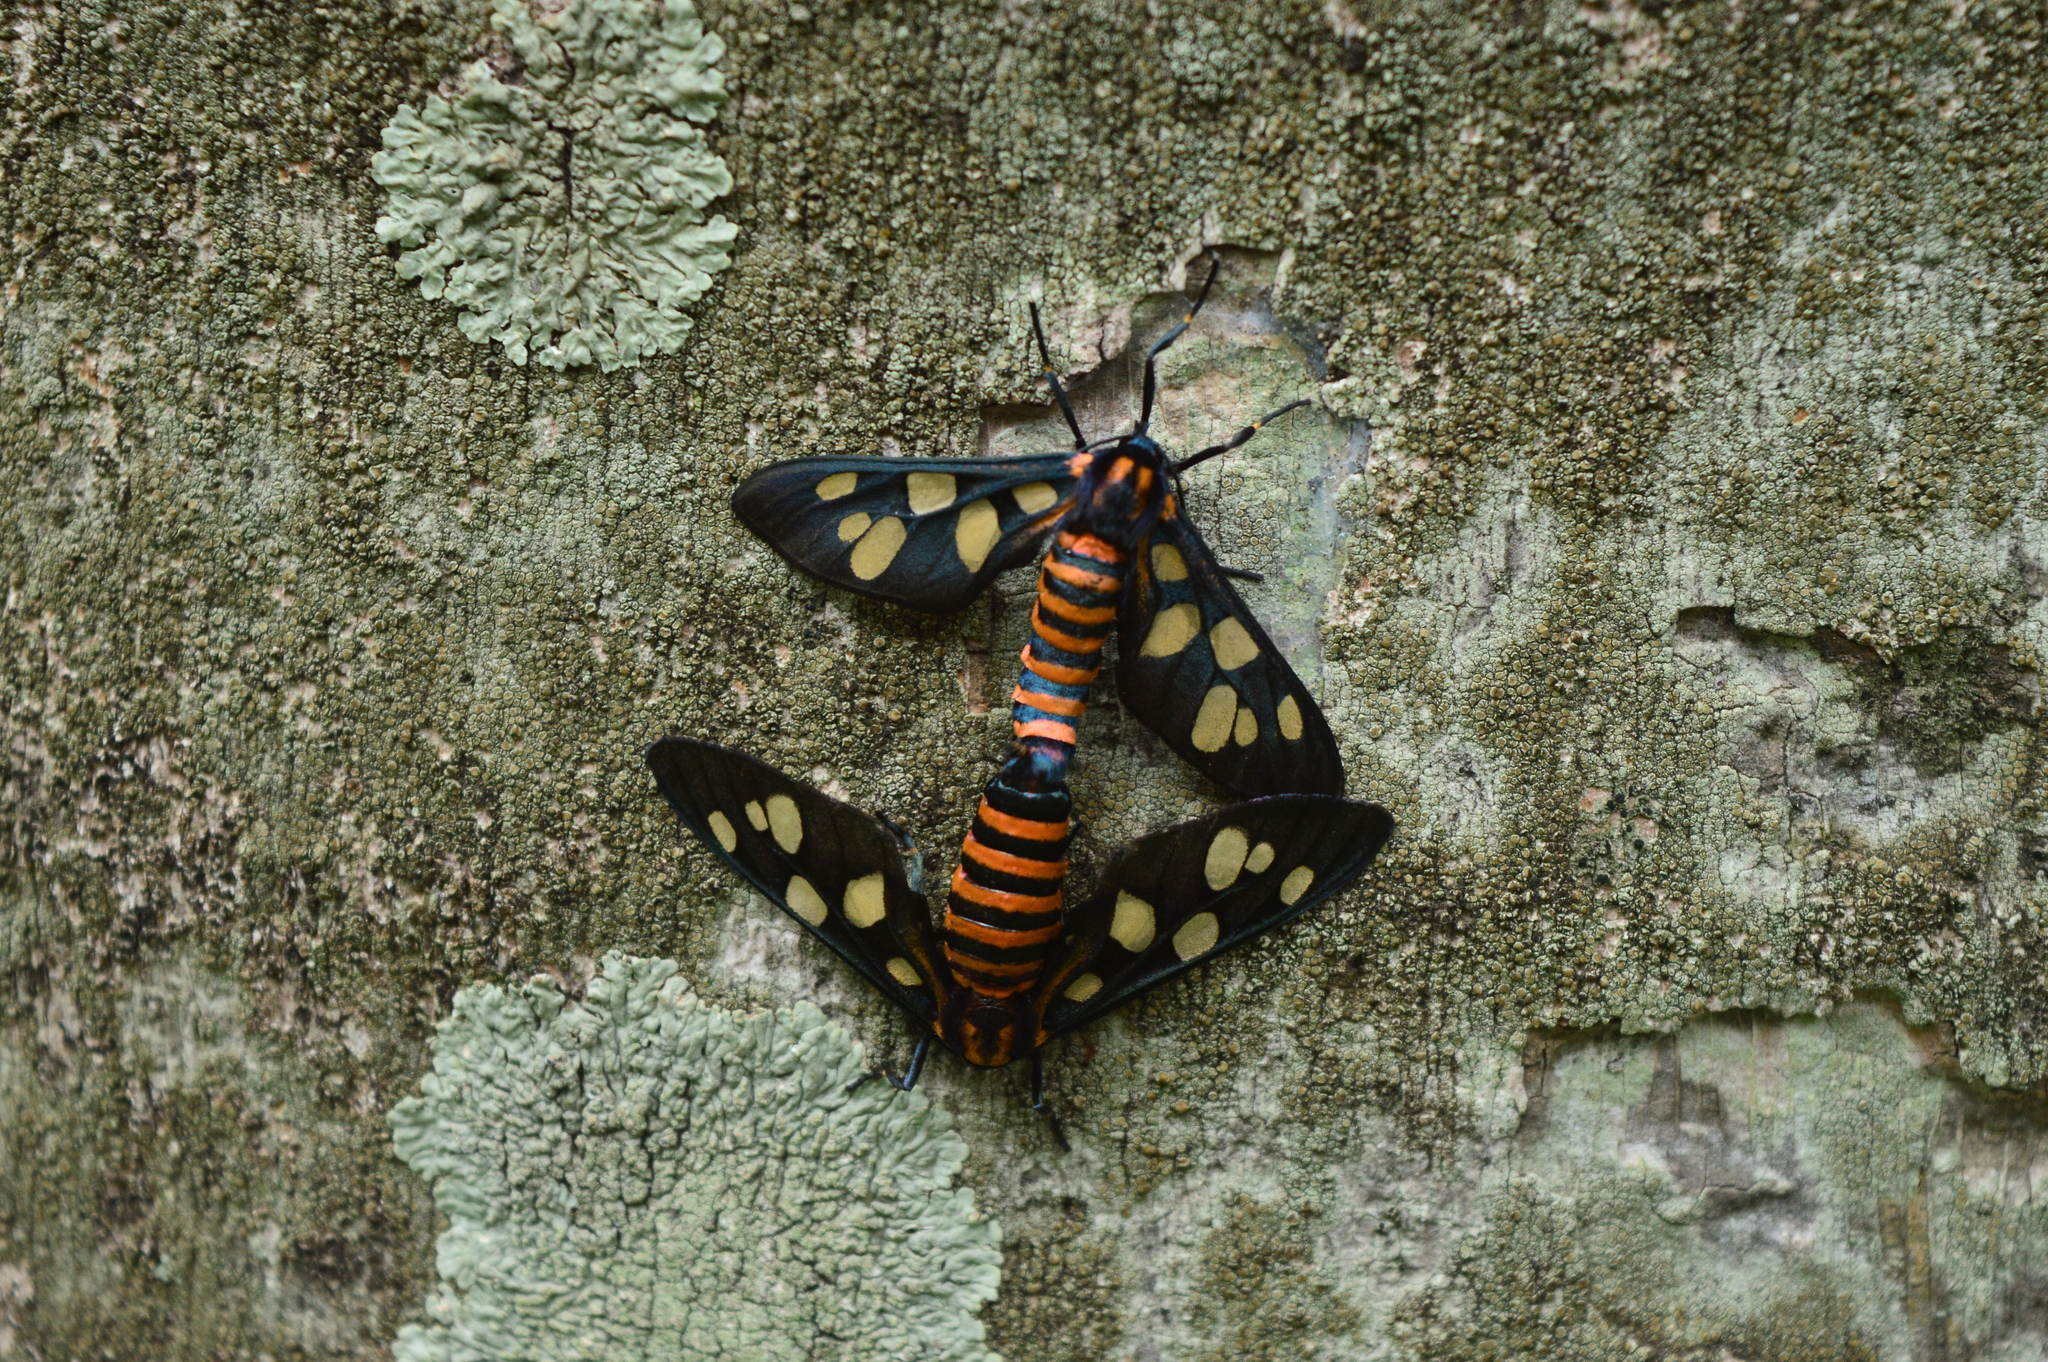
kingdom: Animalia
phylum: Arthropoda
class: Insecta
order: Lepidoptera
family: Erebidae
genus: Amata
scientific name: Amata passalis
